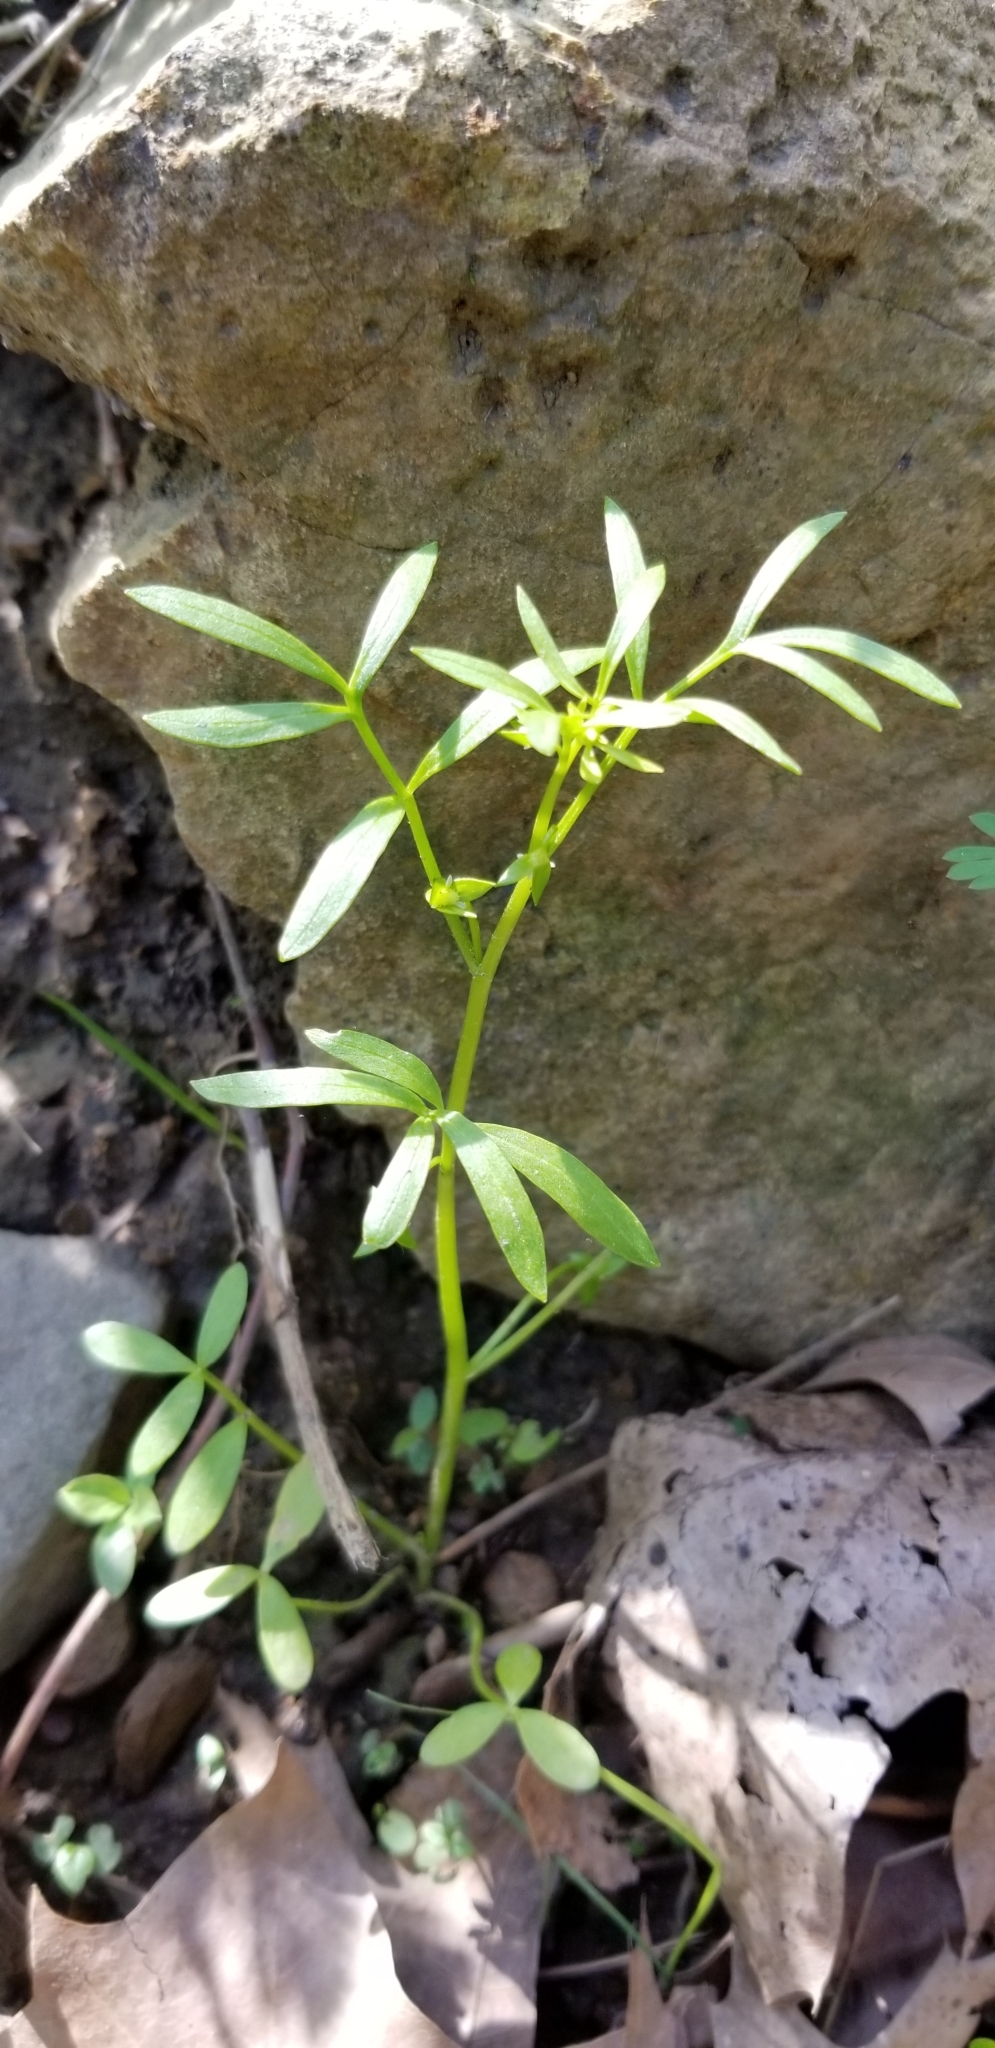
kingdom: Plantae
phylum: Tracheophyta
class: Magnoliopsida
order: Brassicales
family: Limnanthaceae
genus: Floerkea
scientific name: Floerkea proserpinacoides
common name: False mermaid
